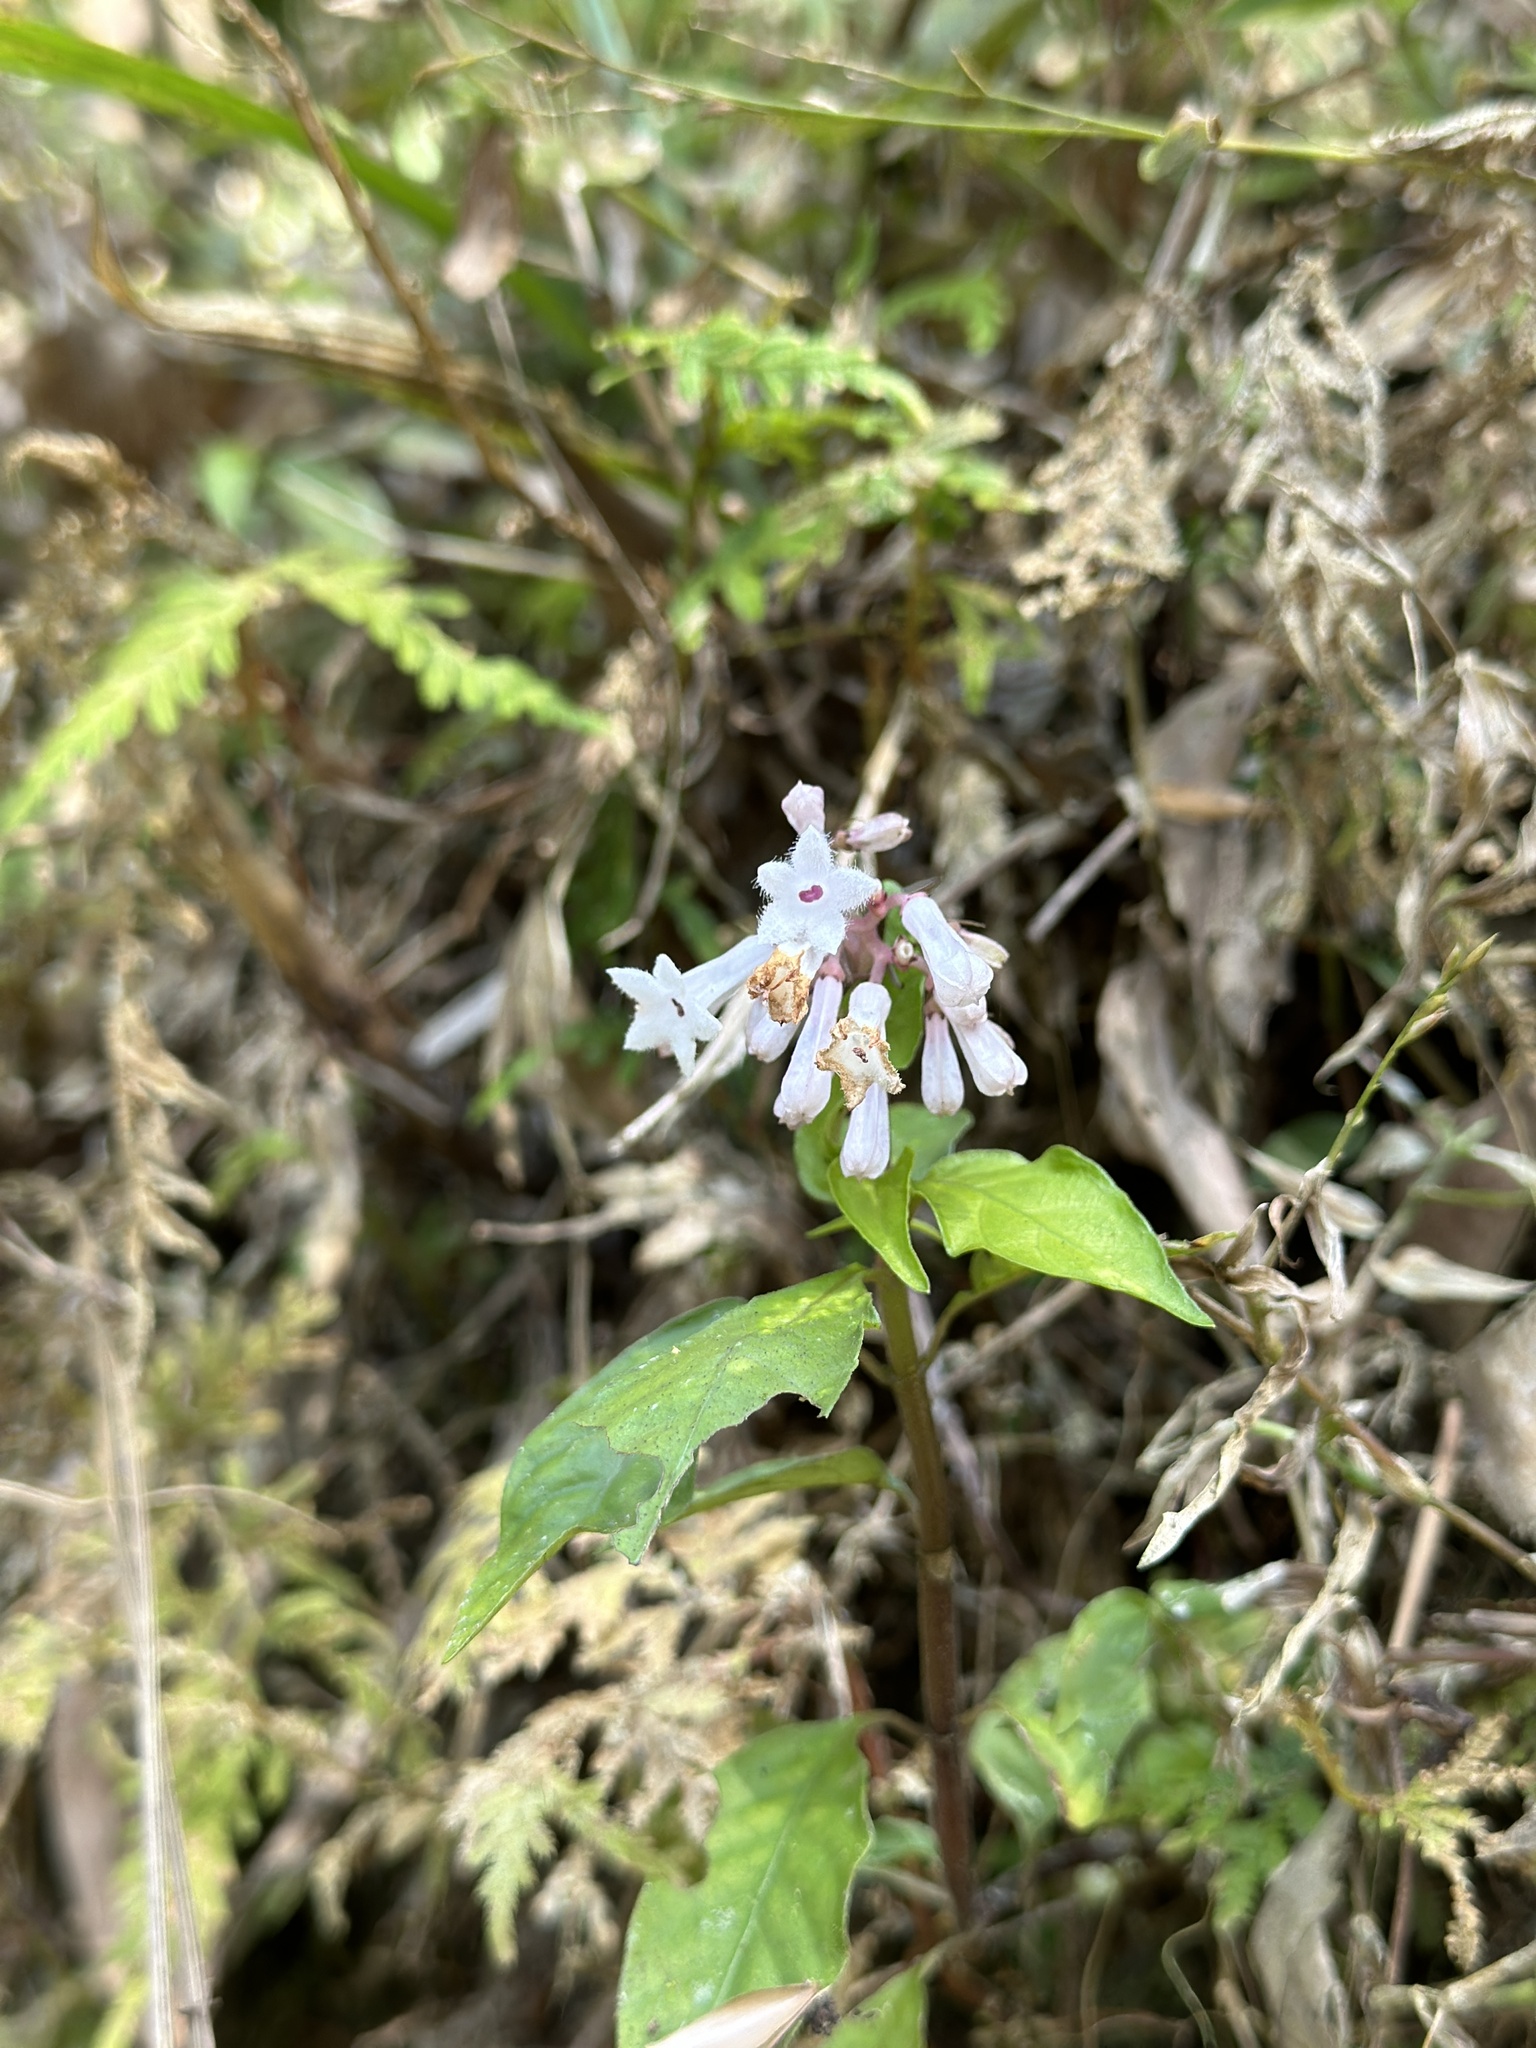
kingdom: Plantae
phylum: Tracheophyta
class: Magnoliopsida
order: Gentianales
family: Rubiaceae
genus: Ophiorrhiza
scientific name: Ophiorrhiza japonica
